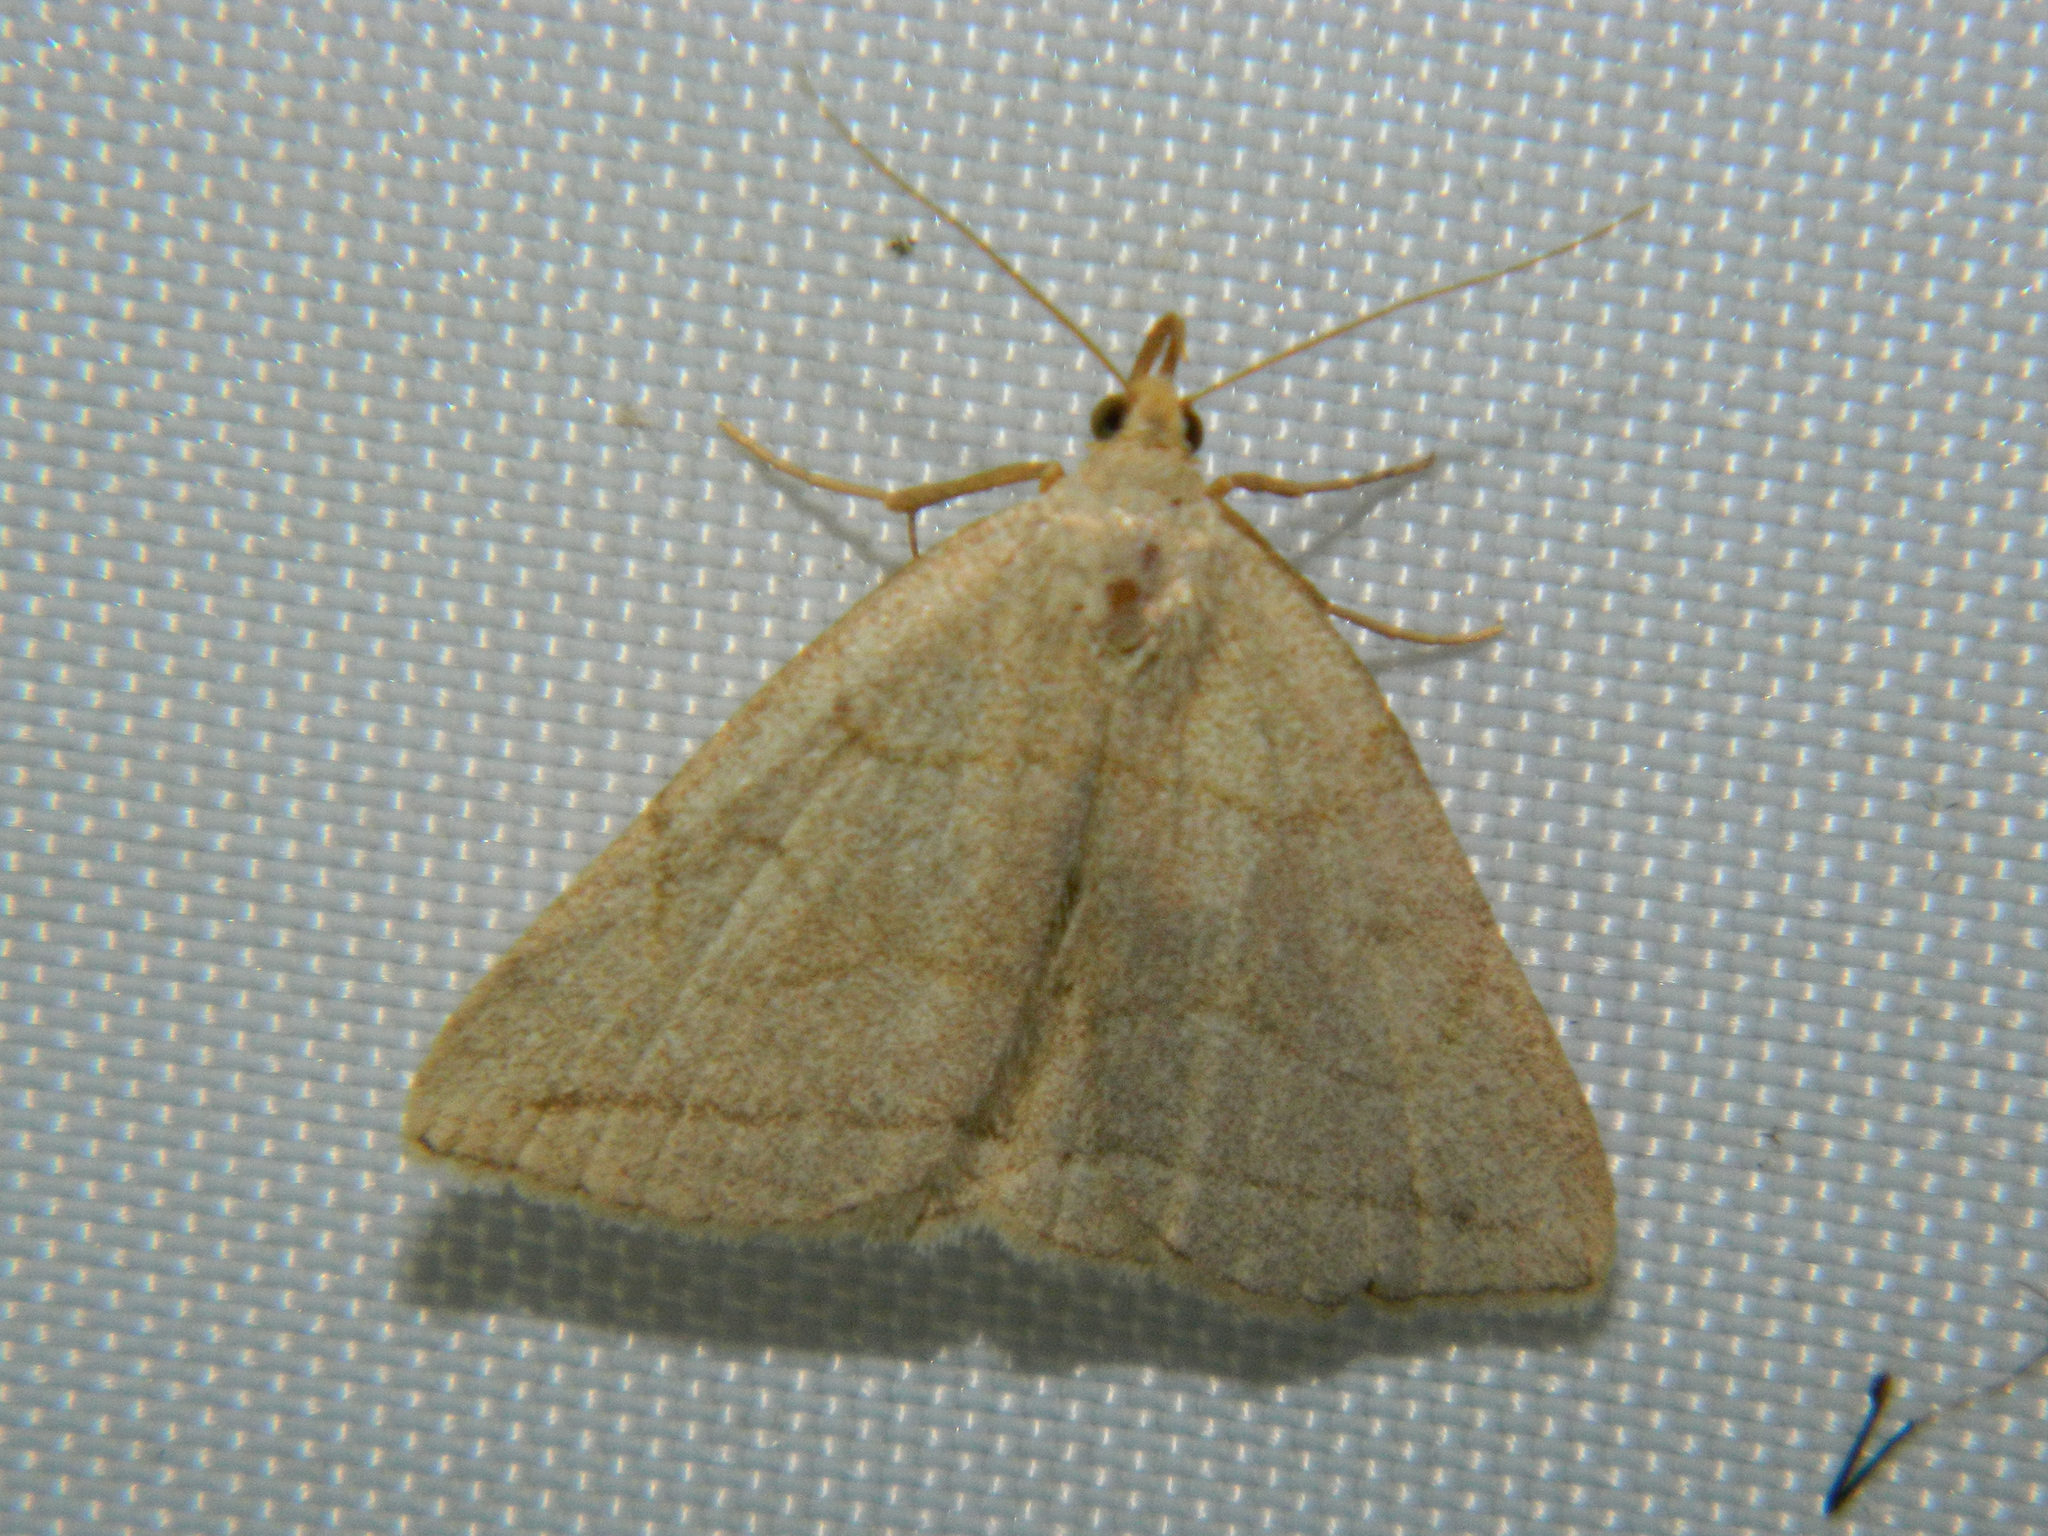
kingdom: Animalia
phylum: Arthropoda
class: Insecta
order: Lepidoptera
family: Erebidae
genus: Zanclognatha
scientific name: Zanclognatha pedipilalis
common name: Grayish fan-foot
